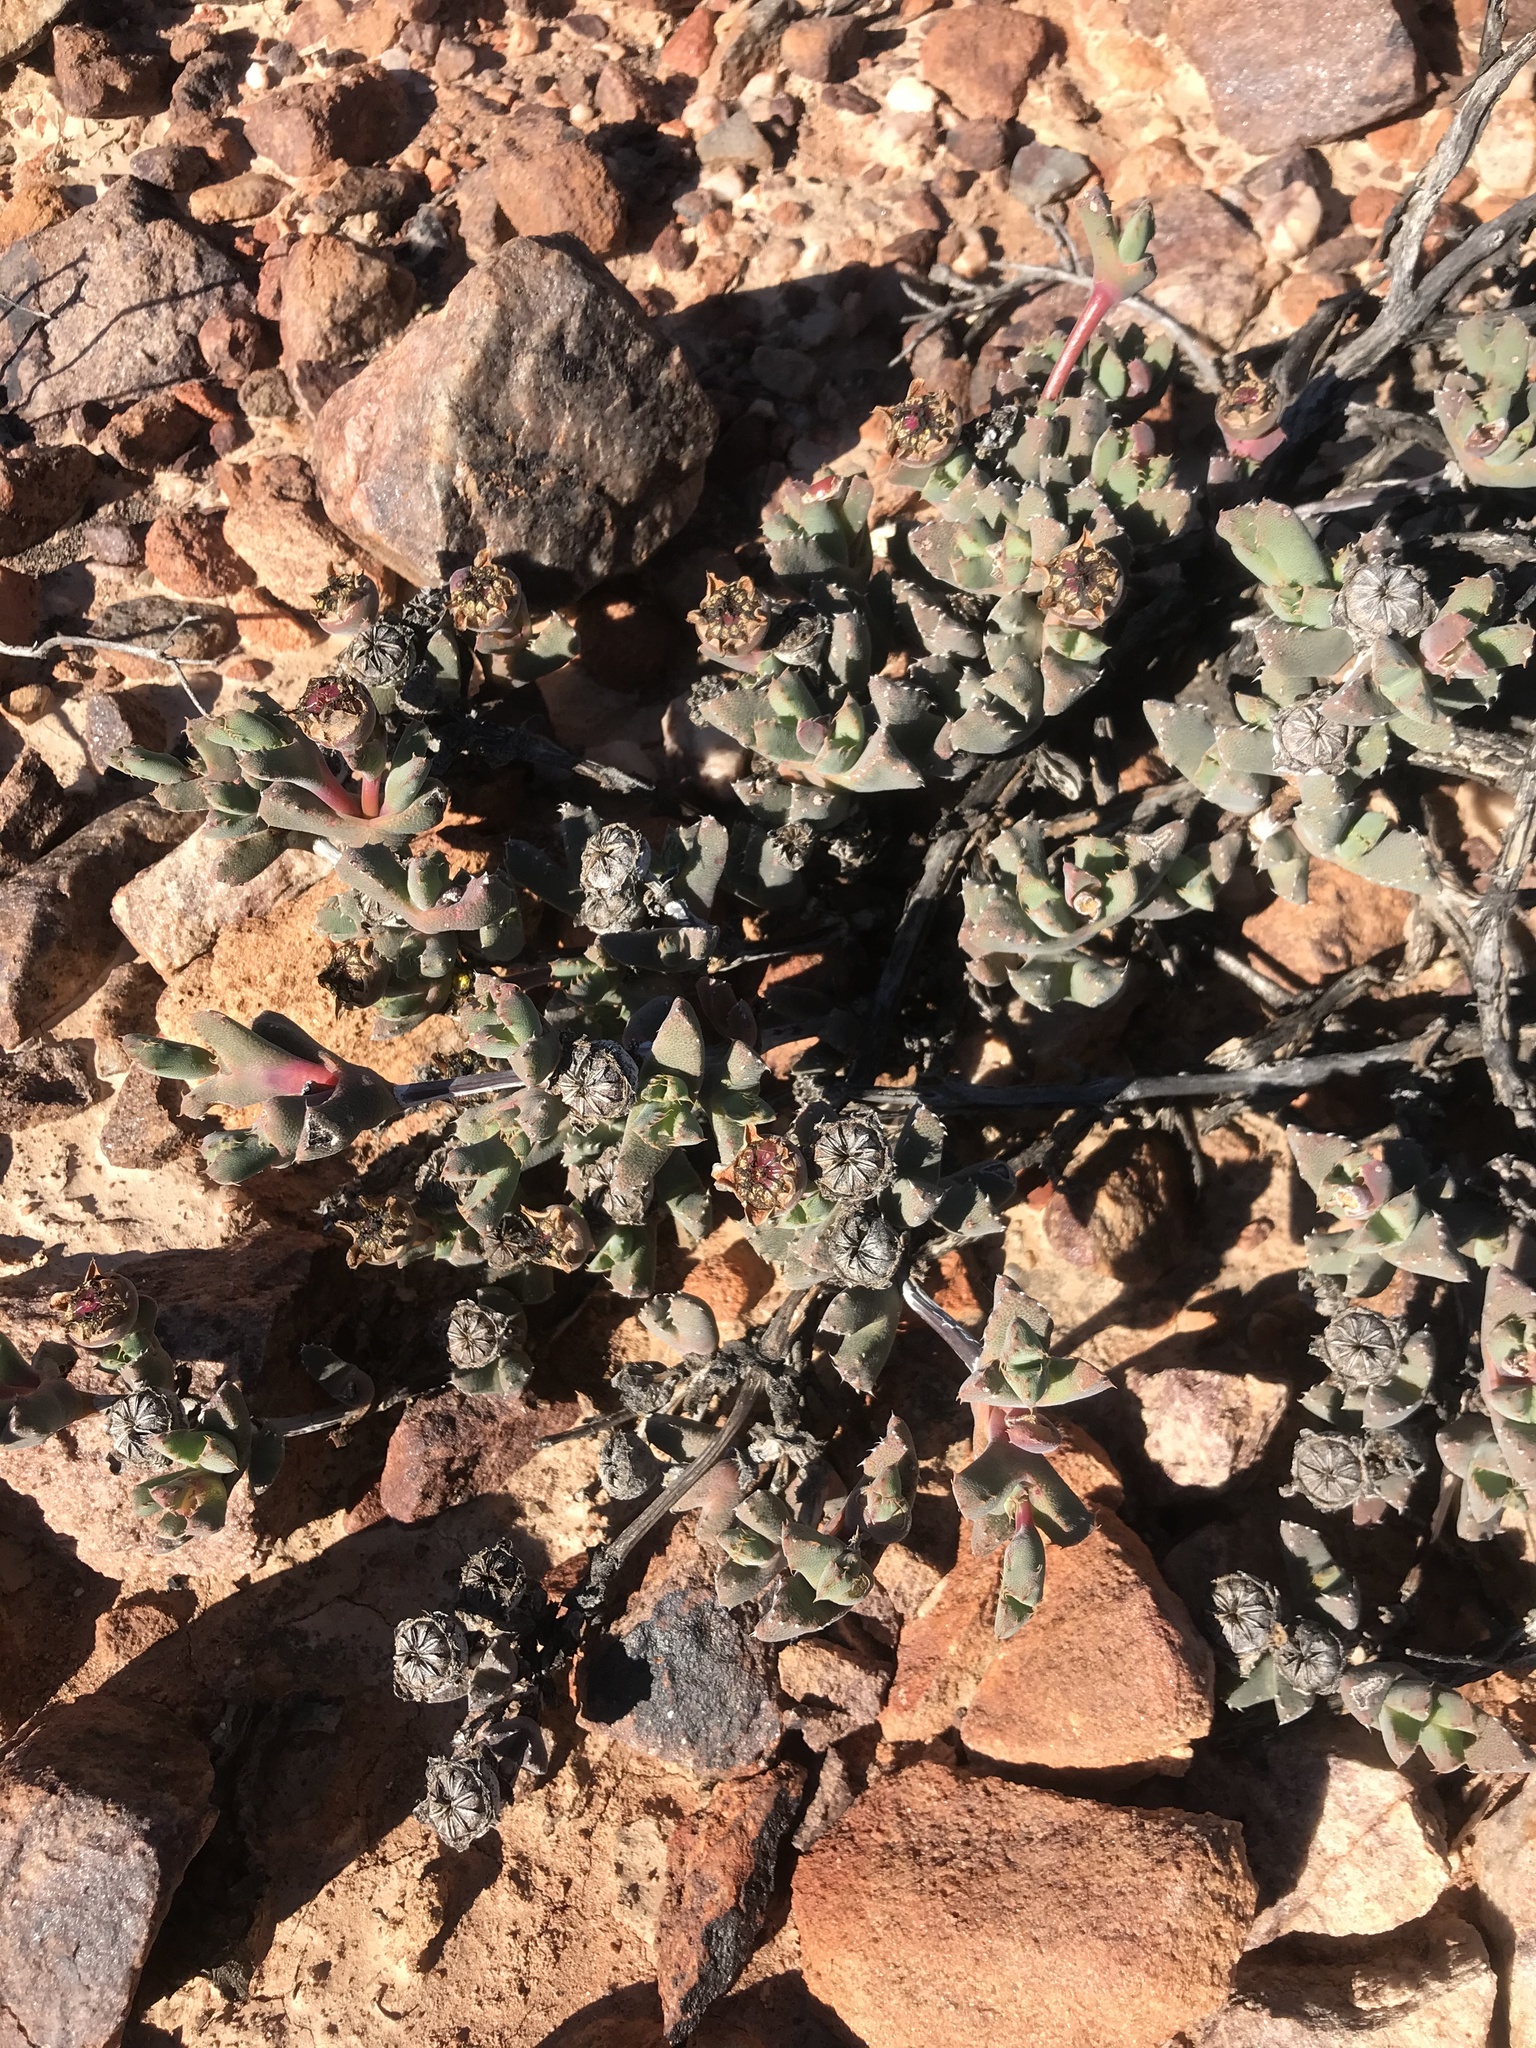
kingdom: Plantae
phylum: Tracheophyta
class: Magnoliopsida
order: Caryophyllales
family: Aizoaceae
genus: Cheiridopsis
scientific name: Cheiridopsis spiculata
